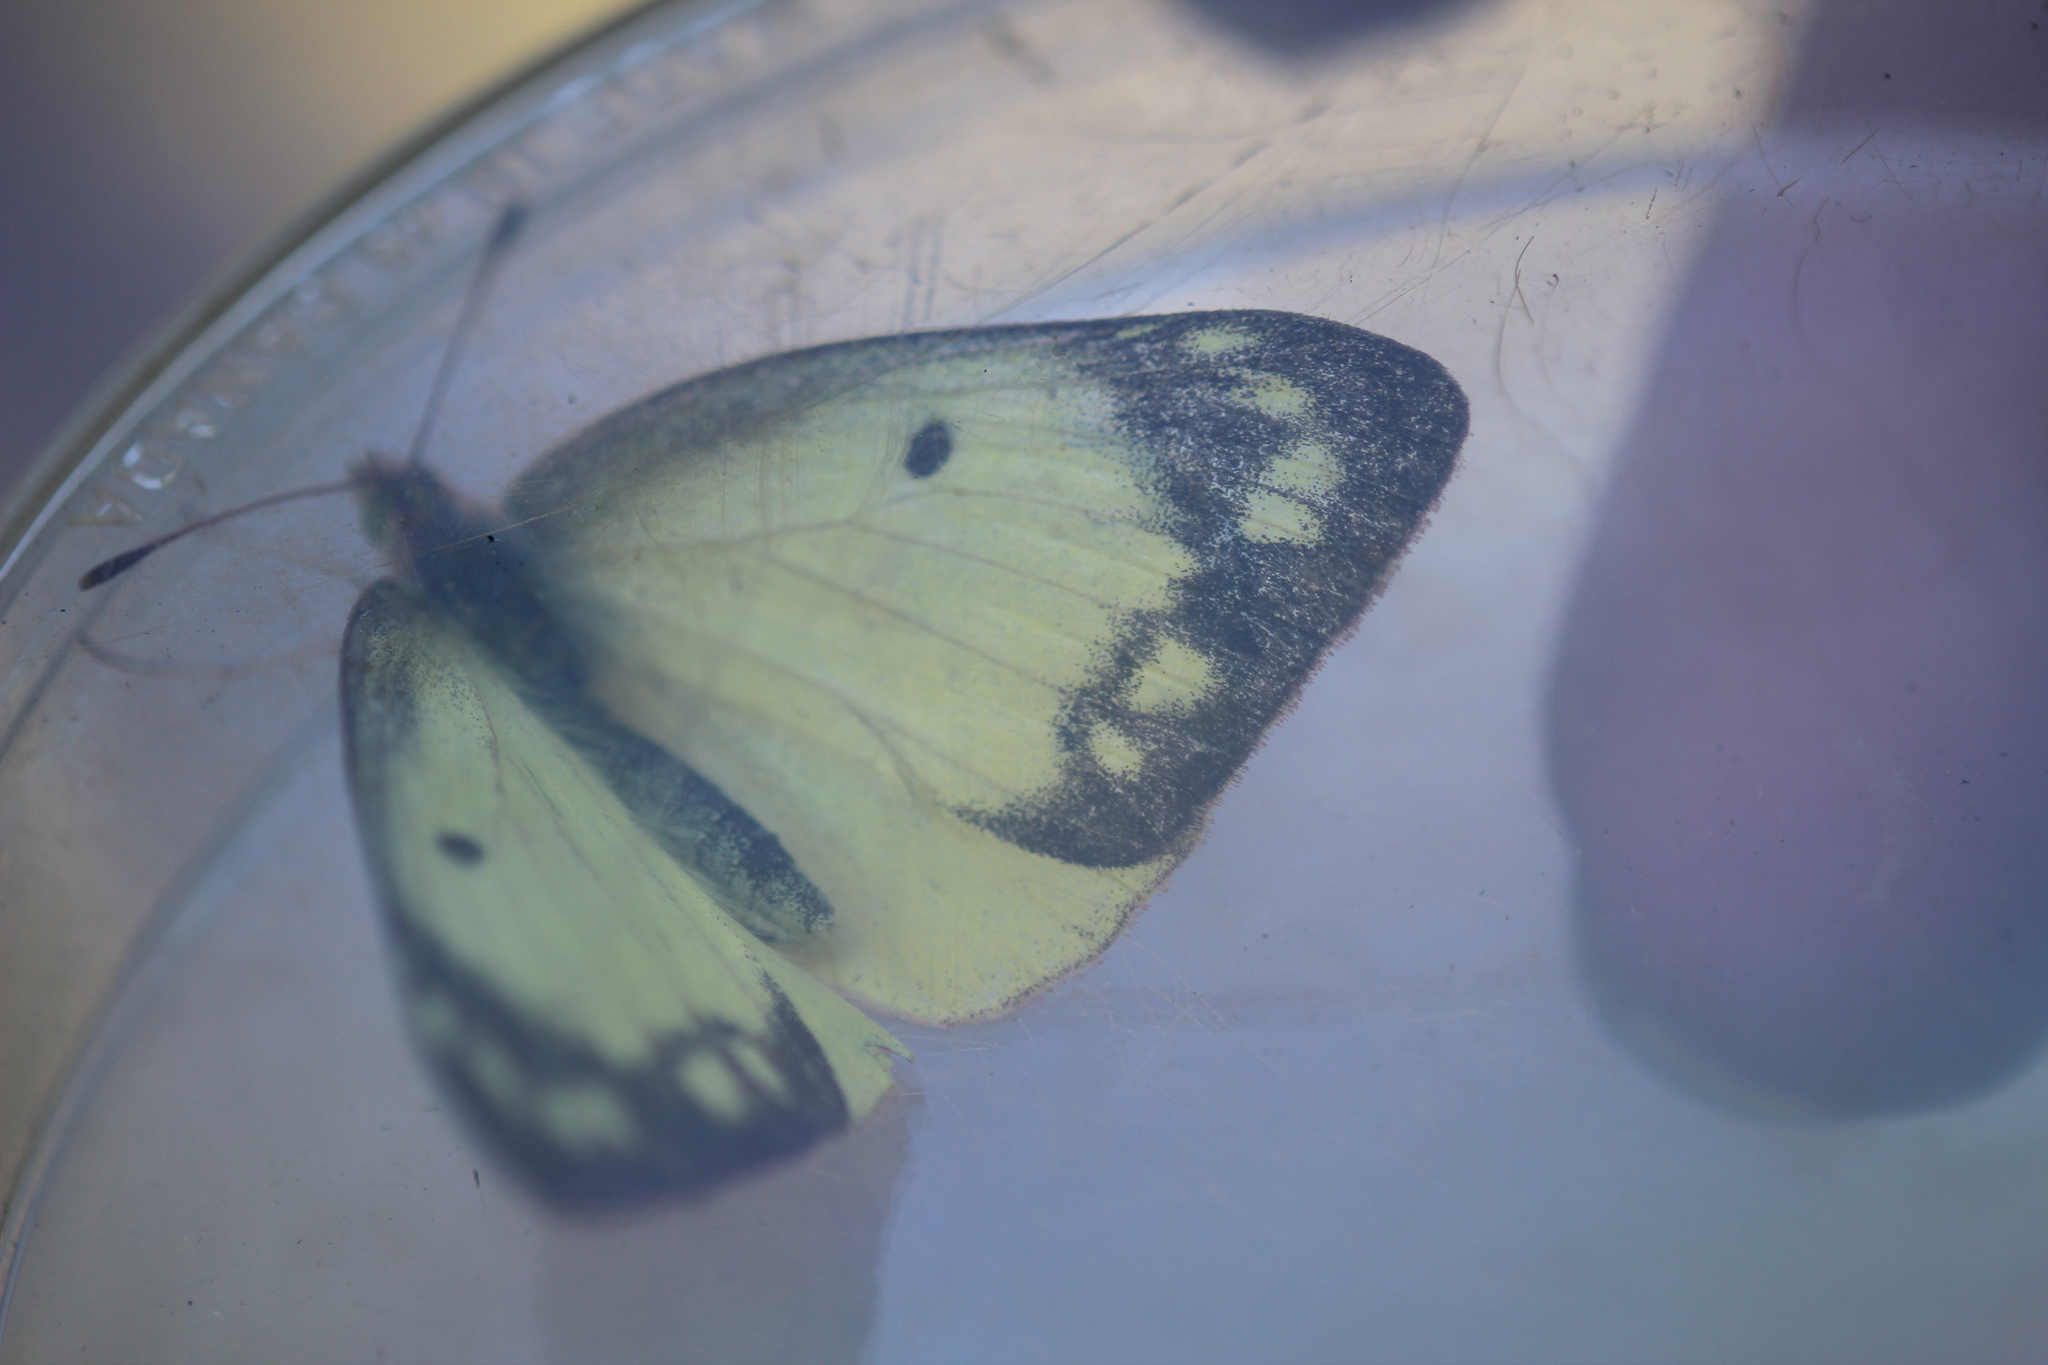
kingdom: Animalia
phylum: Arthropoda
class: Insecta
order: Lepidoptera
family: Pieridae
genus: Colias
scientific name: Colias philodice
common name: Clouded sulphur
